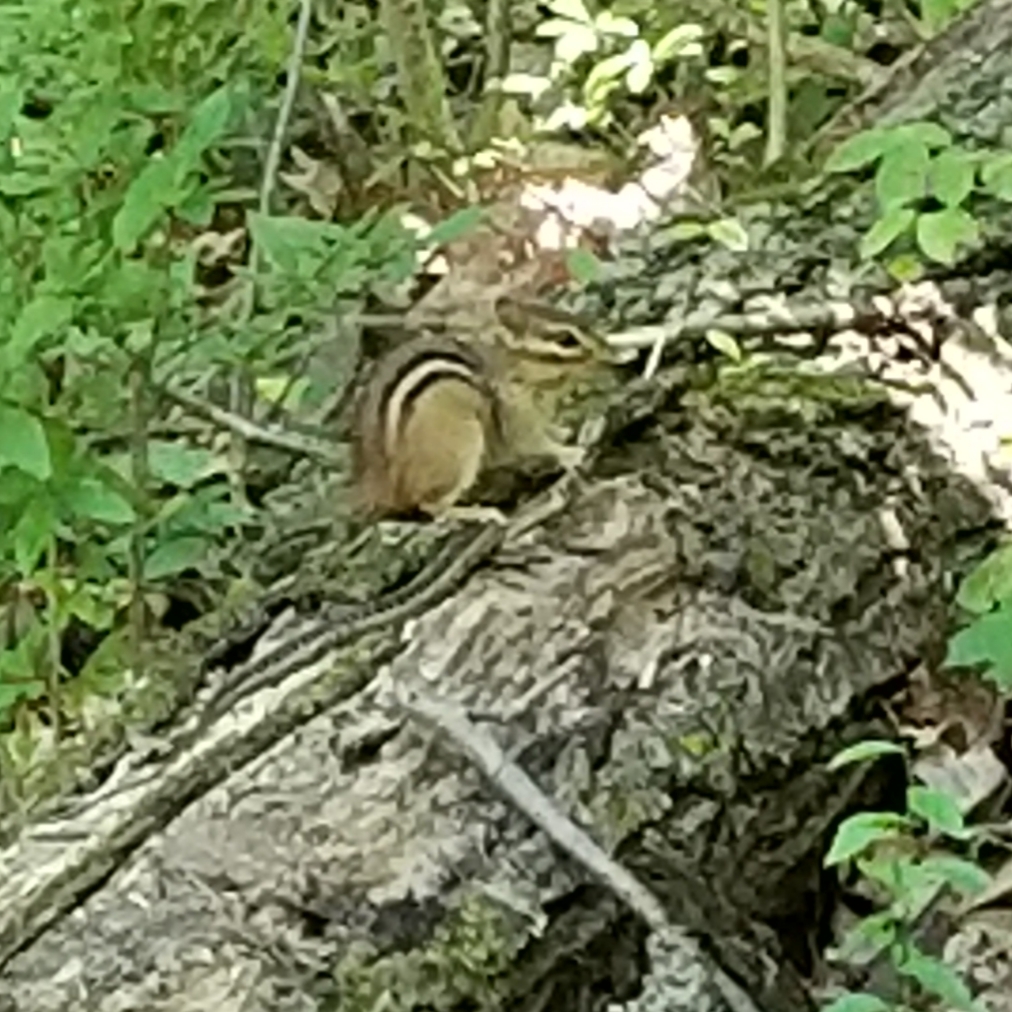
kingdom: Animalia
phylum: Chordata
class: Mammalia
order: Rodentia
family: Sciuridae
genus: Tamias
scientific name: Tamias striatus
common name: Eastern chipmunk
